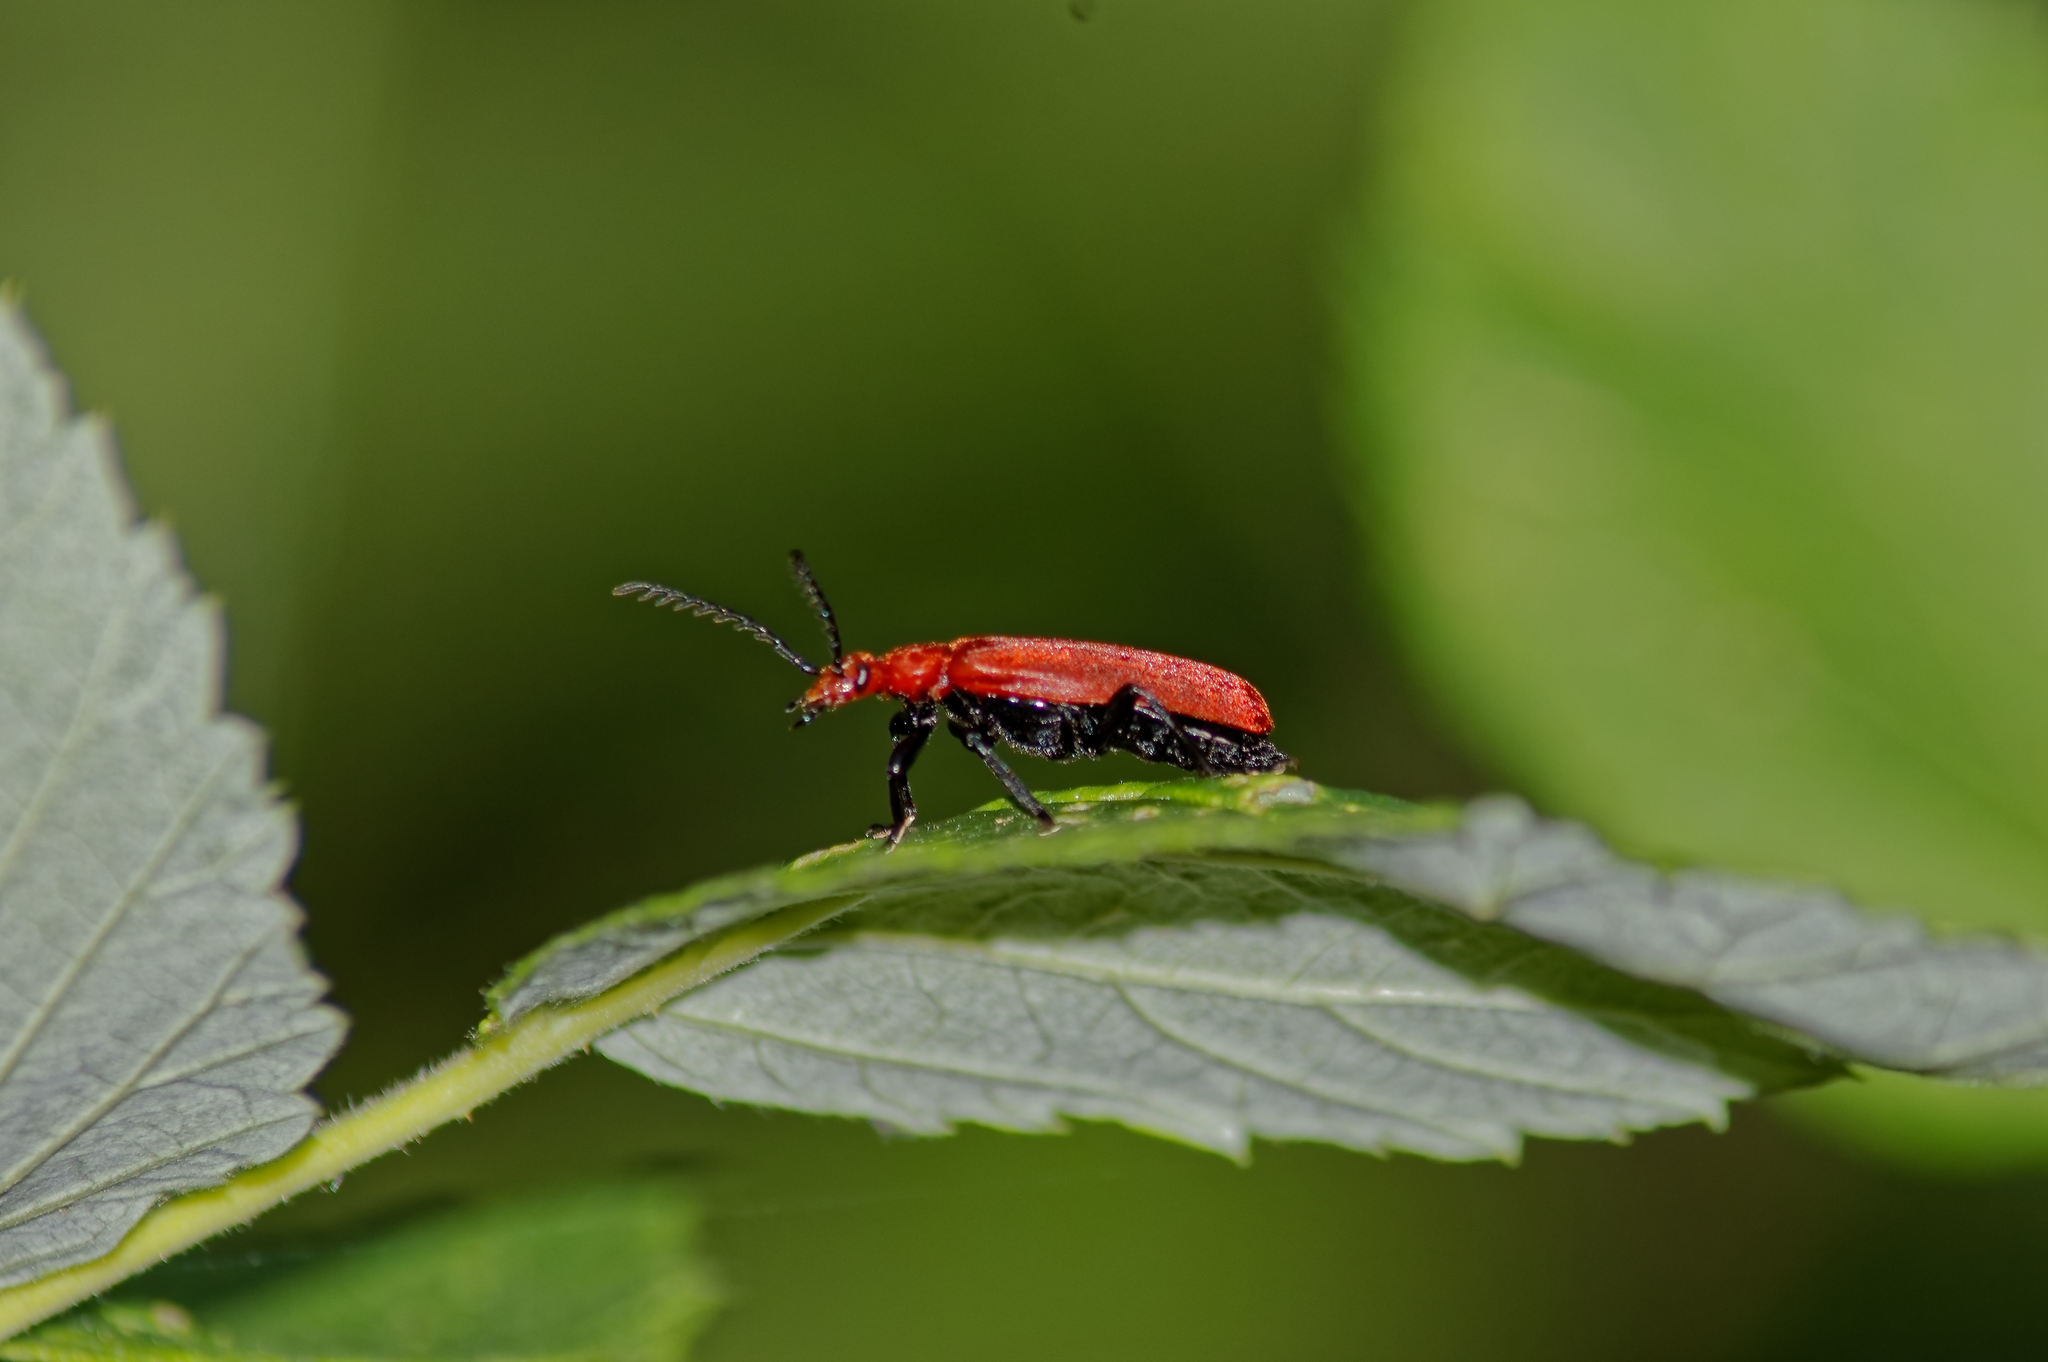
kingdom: Animalia
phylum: Arthropoda
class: Insecta
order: Coleoptera
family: Pyrochroidae
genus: Pyrochroa
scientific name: Pyrochroa serraticornis
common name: Red-headed cardinal beetle
